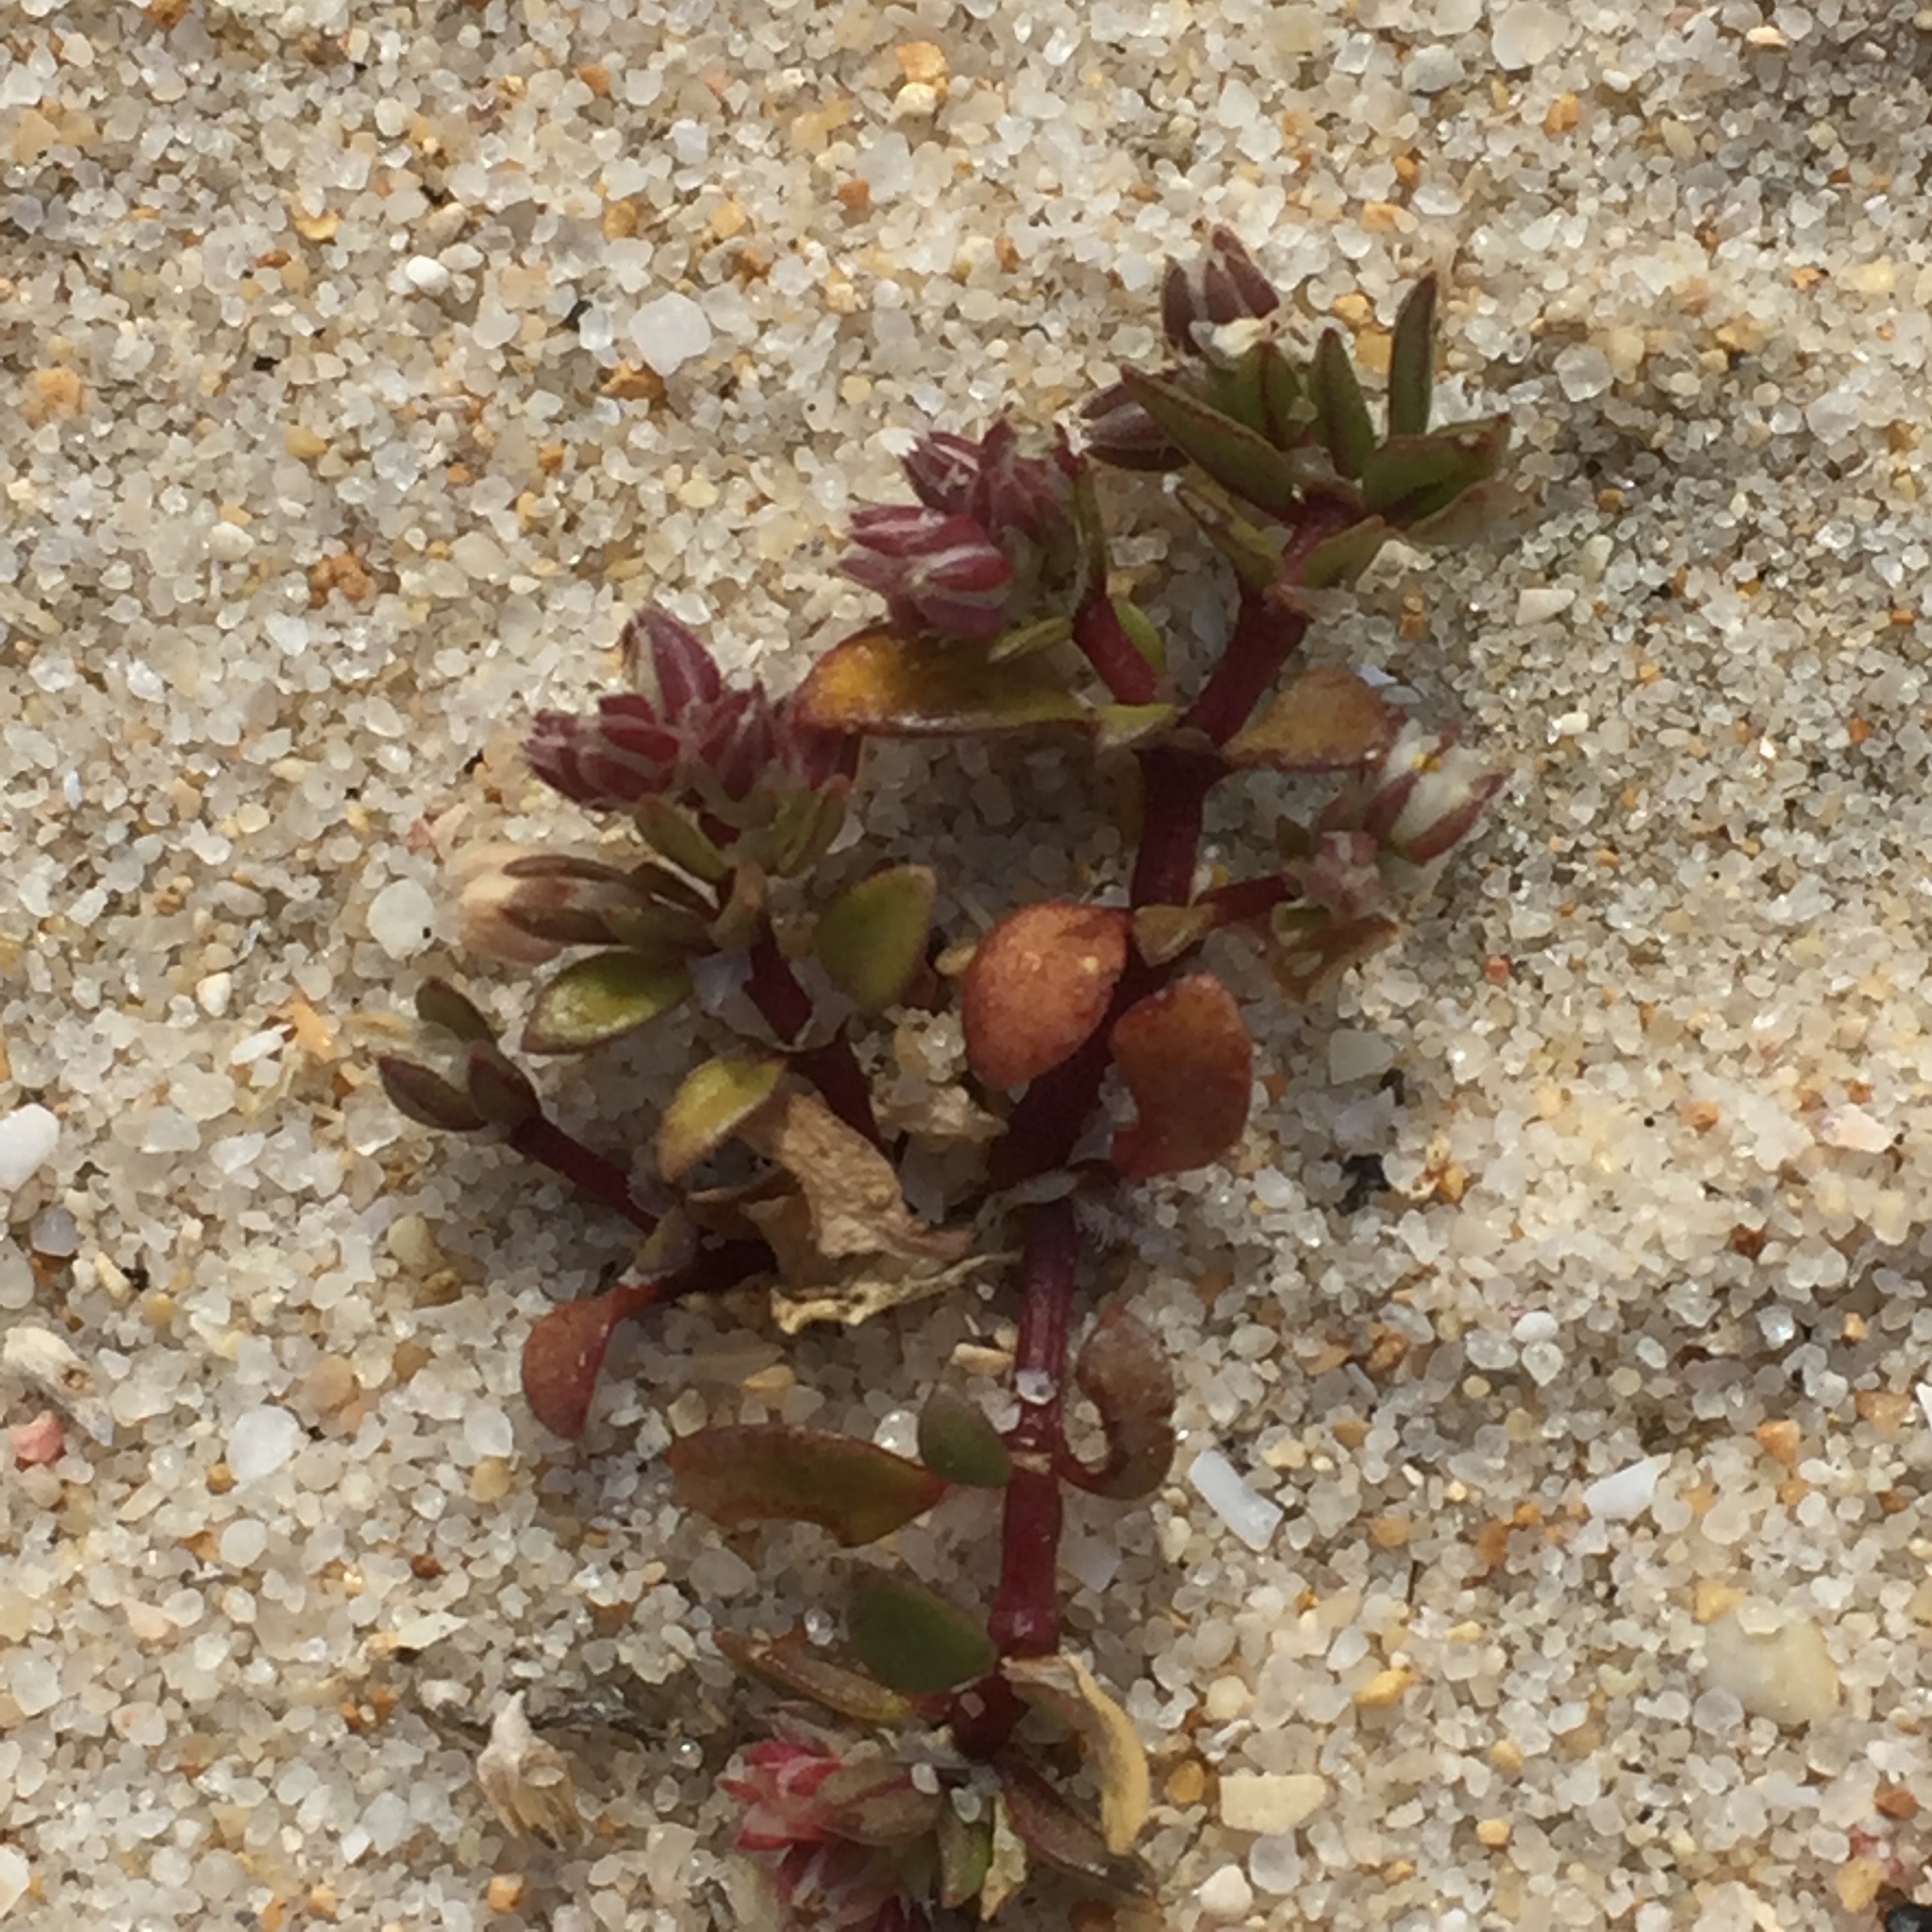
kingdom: Plantae
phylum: Tracheophyta
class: Magnoliopsida
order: Caryophyllales
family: Caryophyllaceae
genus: Polycarpon
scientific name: Polycarpon tetraphyllum
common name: Four-leaved all-seed
